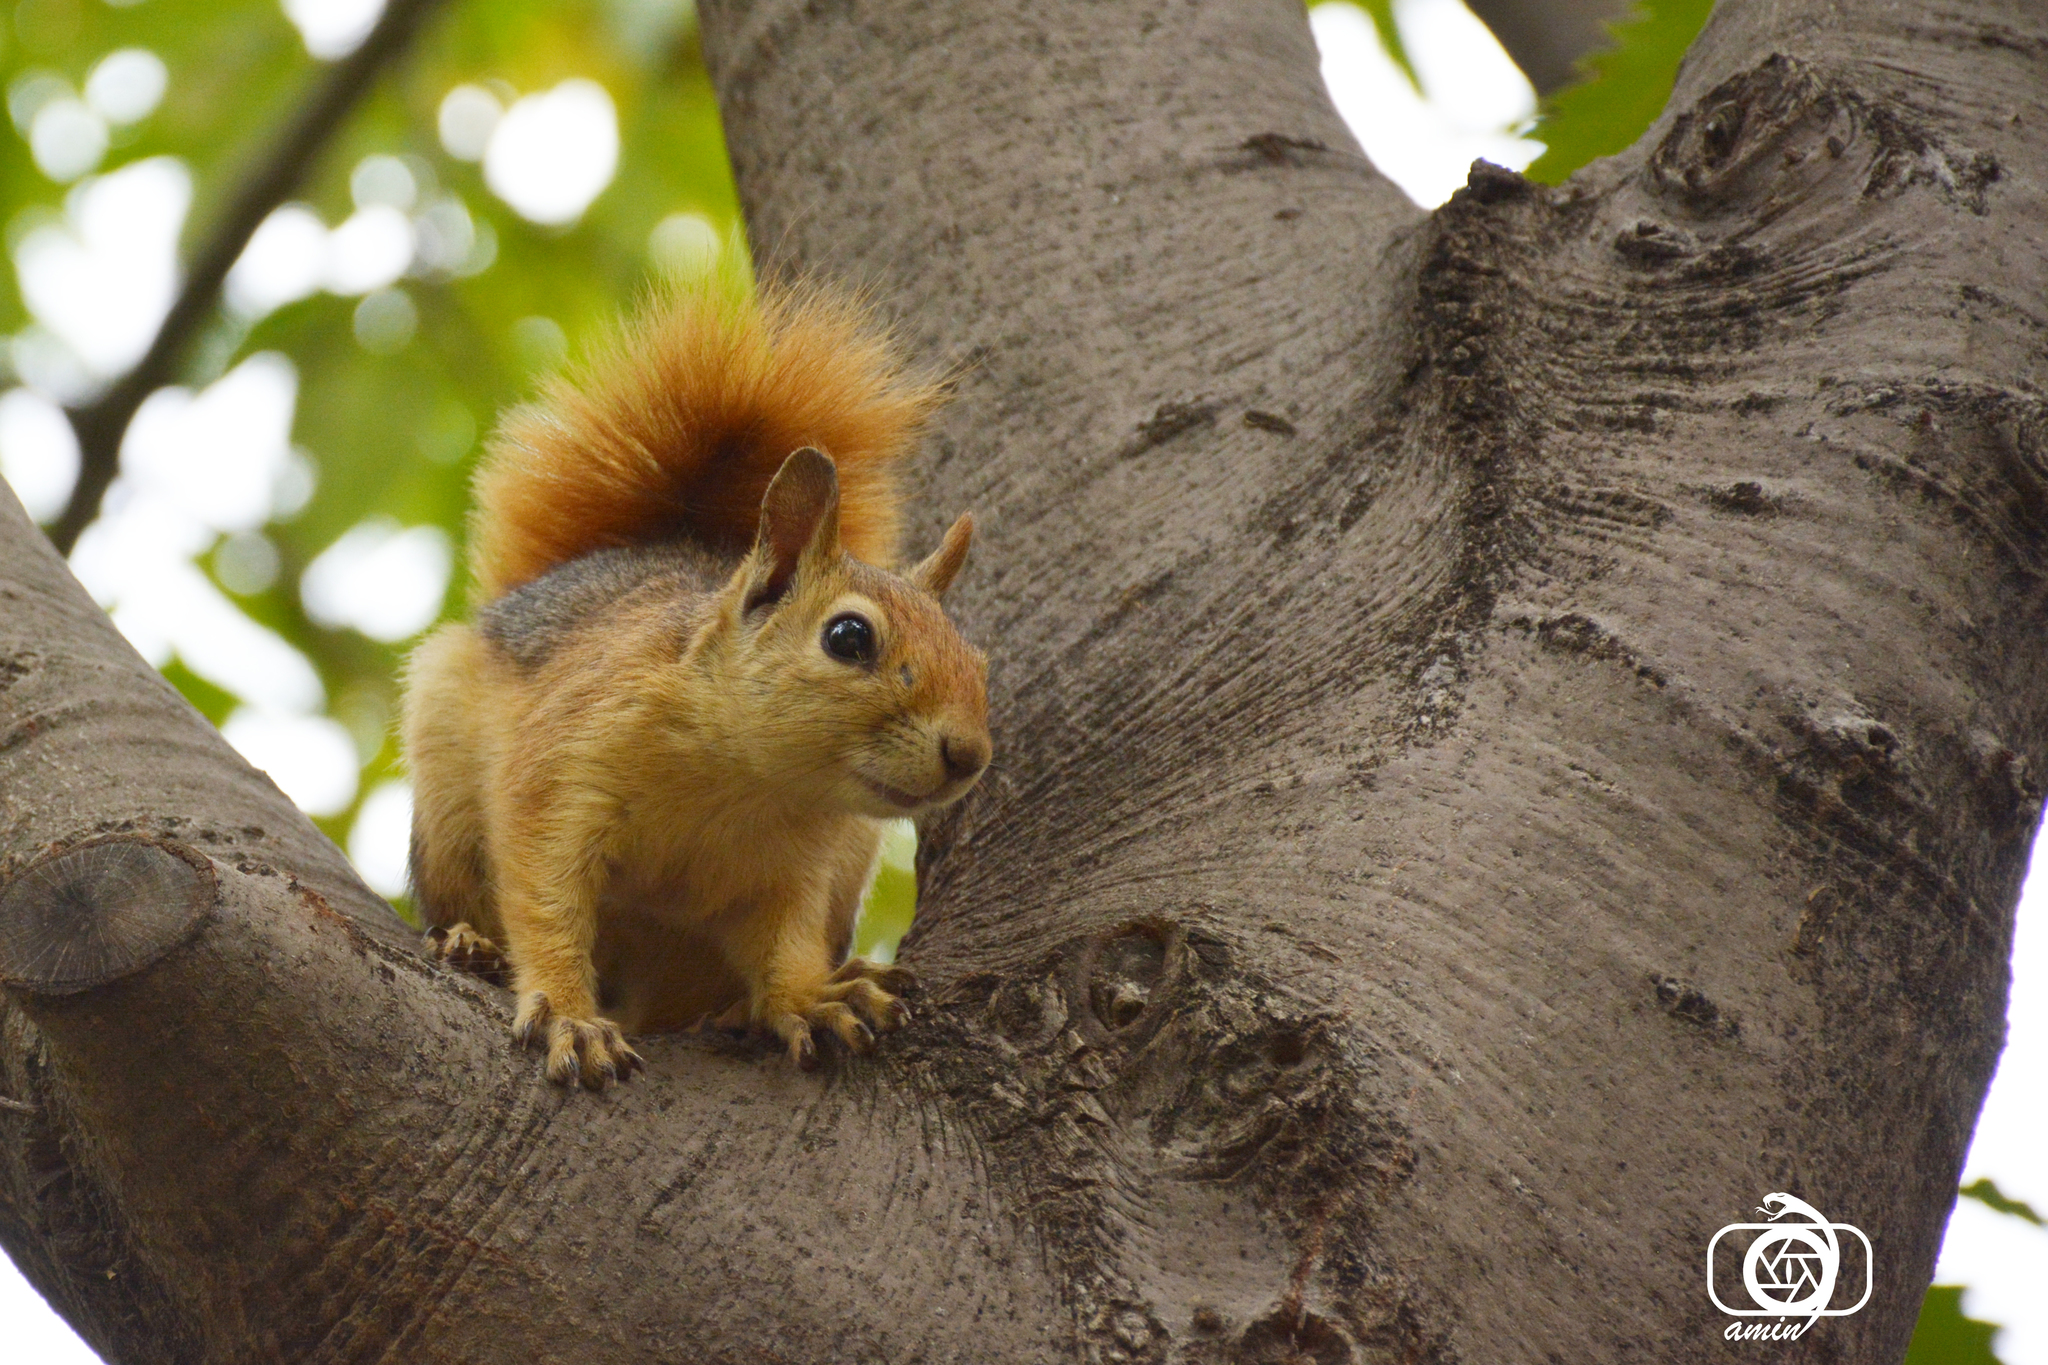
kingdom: Animalia
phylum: Chordata
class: Mammalia
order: Rodentia
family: Sciuridae
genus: Sciurus
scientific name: Sciurus anomalus
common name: Caucasian squirrel
